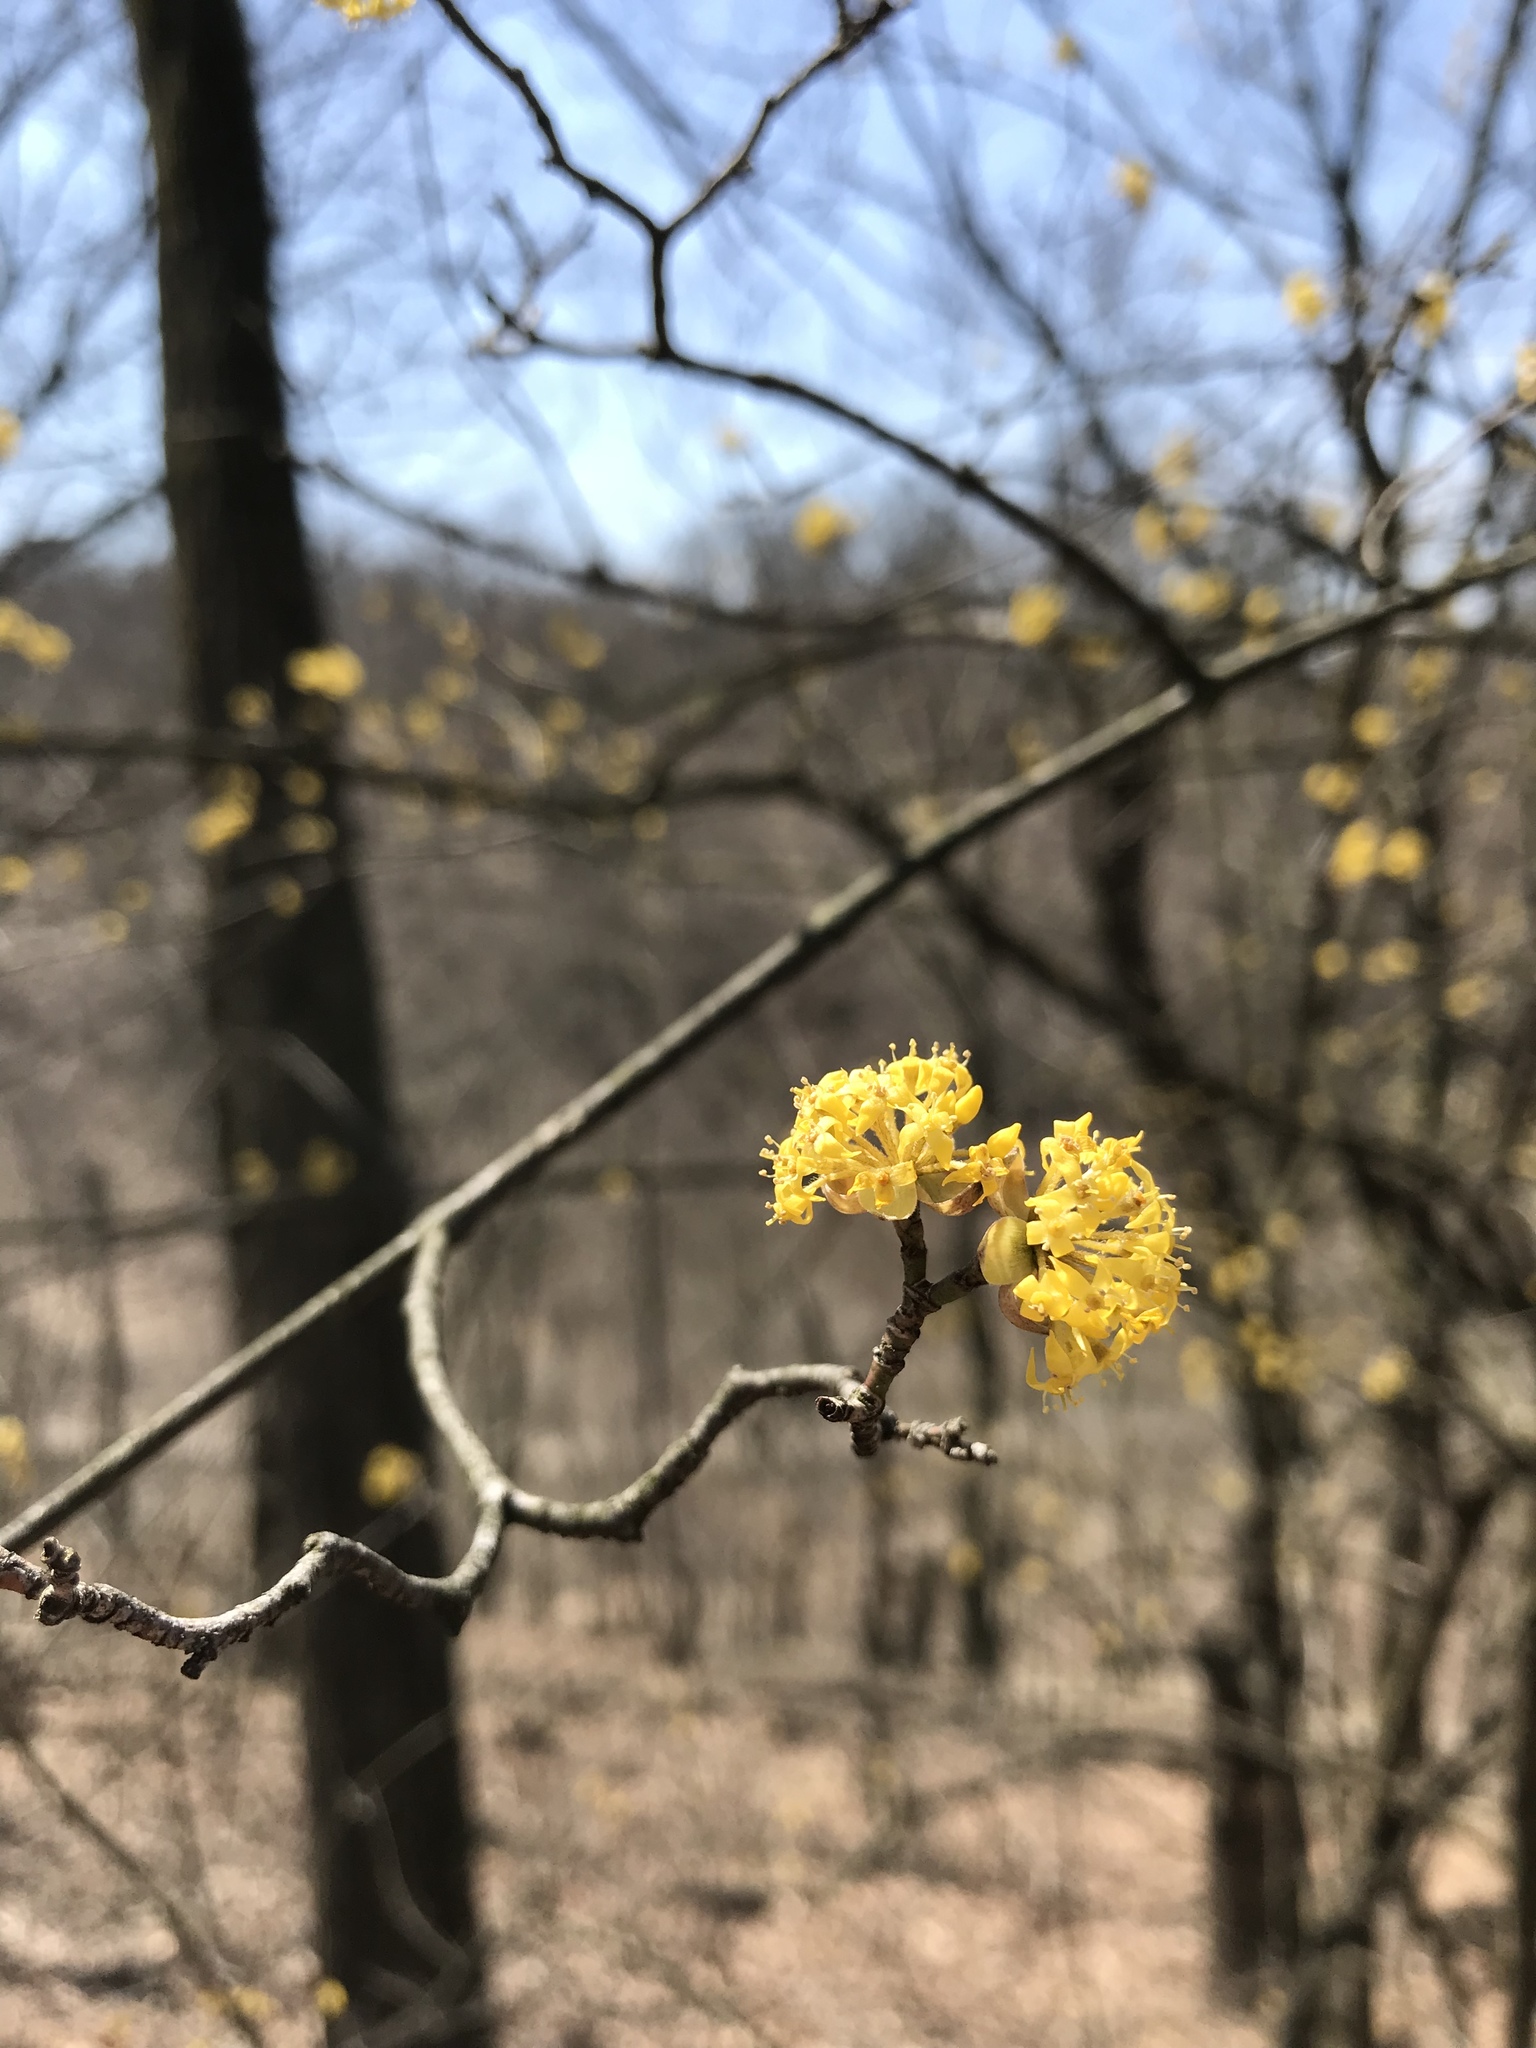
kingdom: Plantae
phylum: Tracheophyta
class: Magnoliopsida
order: Cornales
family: Cornaceae
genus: Cornus
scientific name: Cornus mas
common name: Cornelian-cherry
